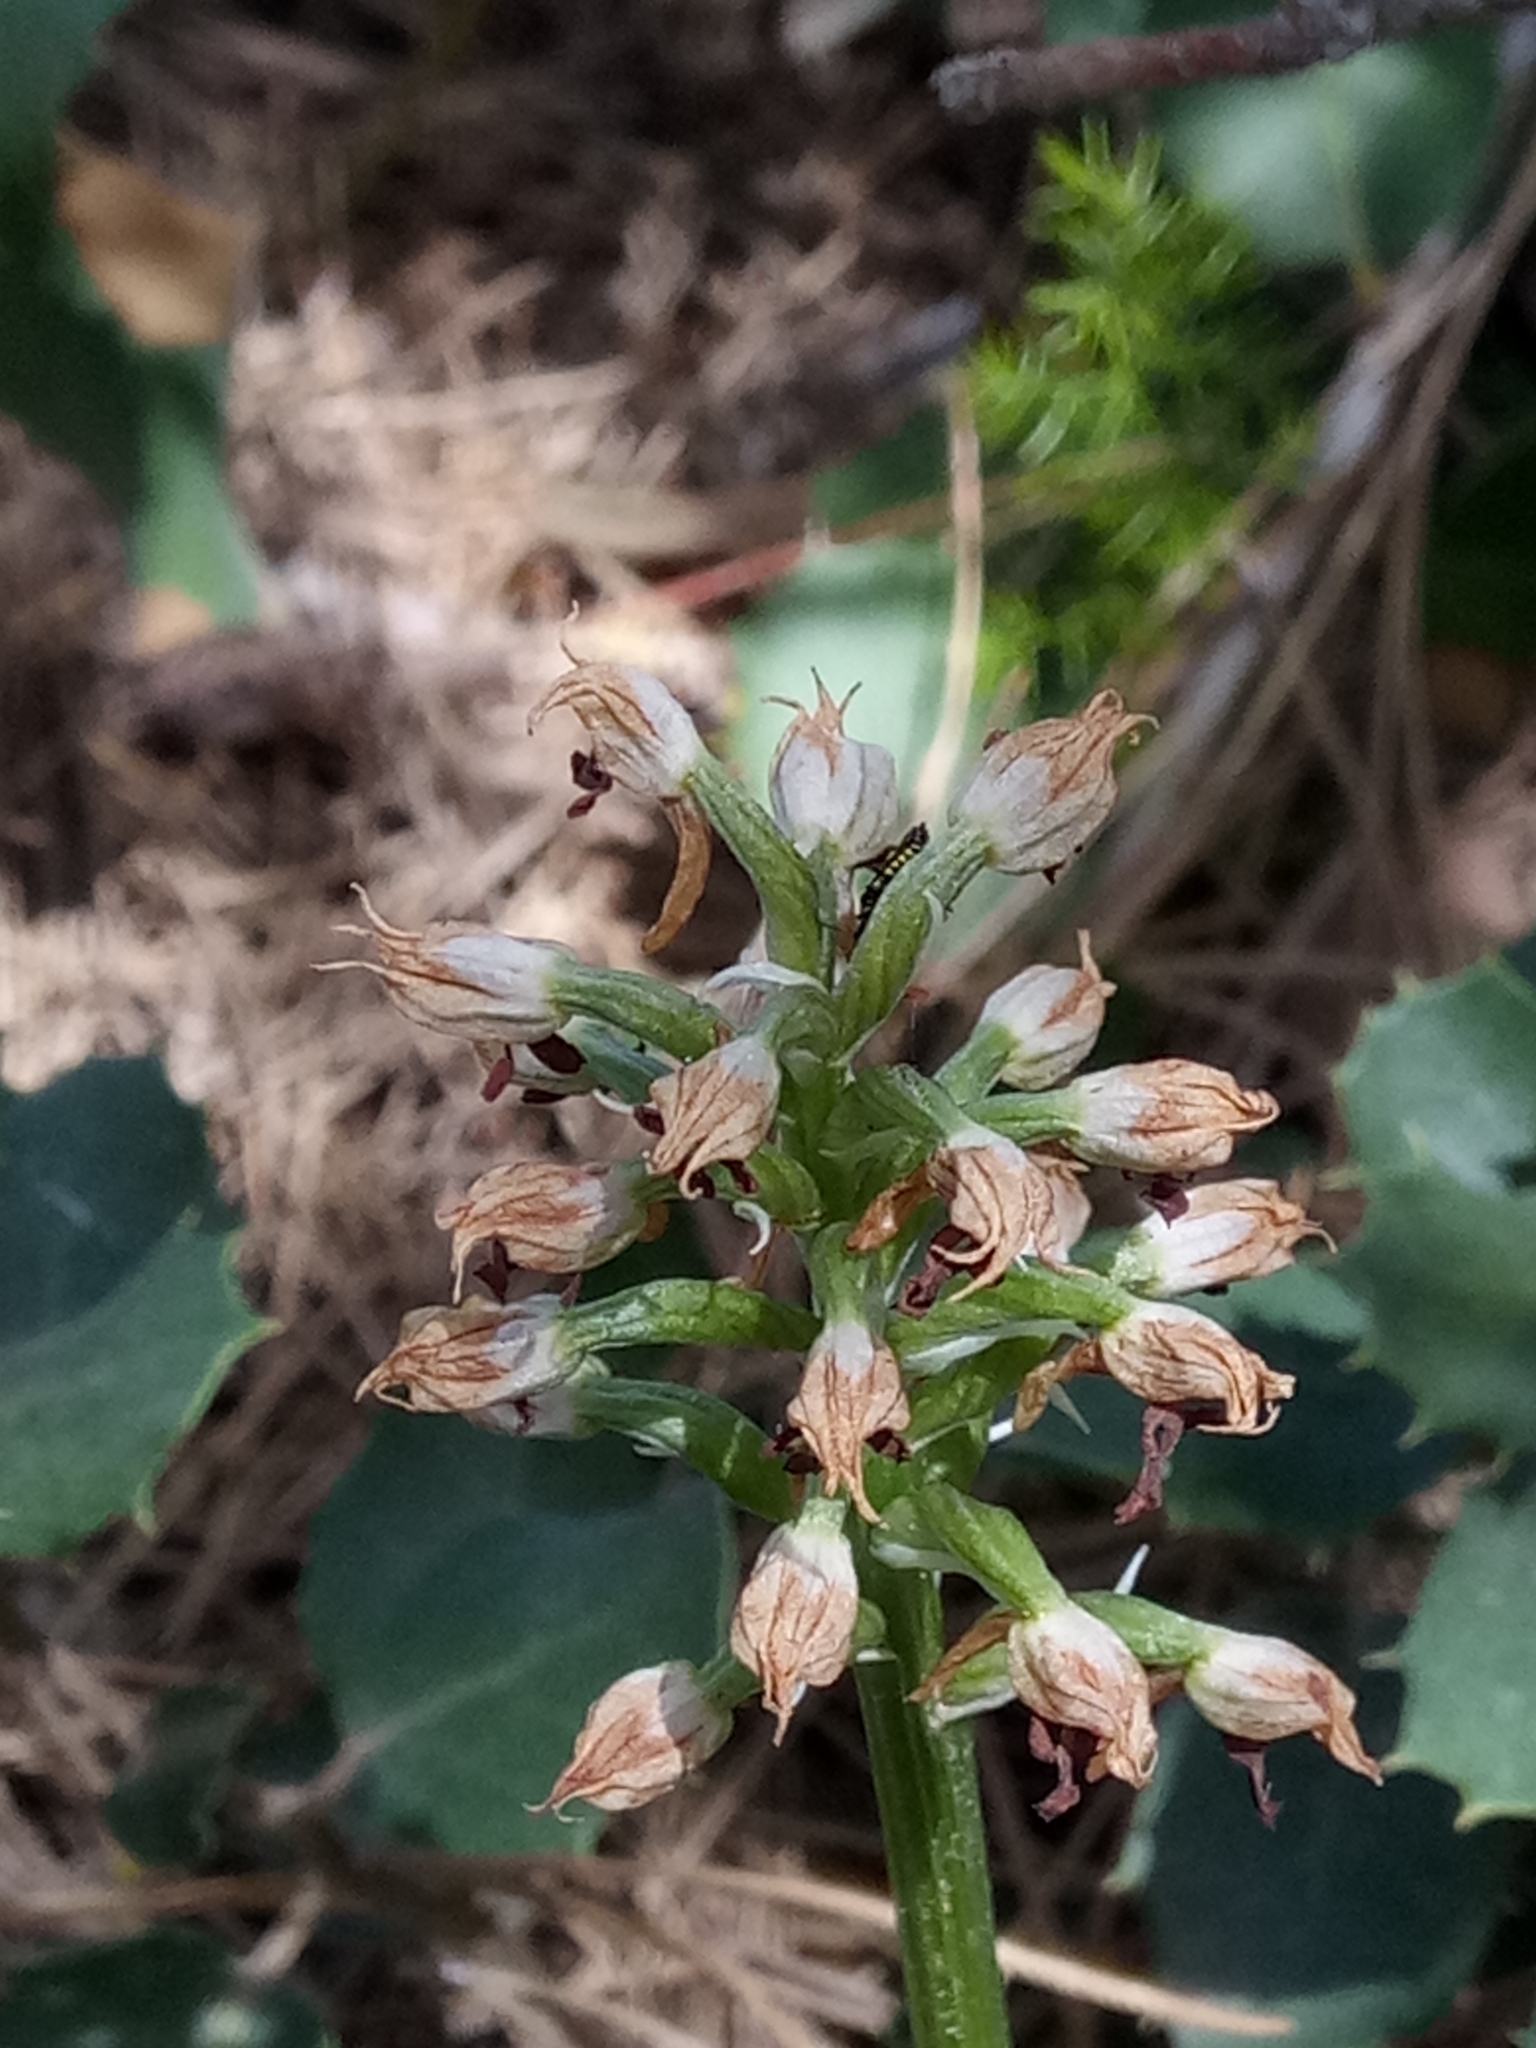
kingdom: Plantae
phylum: Tracheophyta
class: Liliopsida
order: Asparagales
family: Orchidaceae
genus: Neotinea
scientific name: Neotinea lactea
